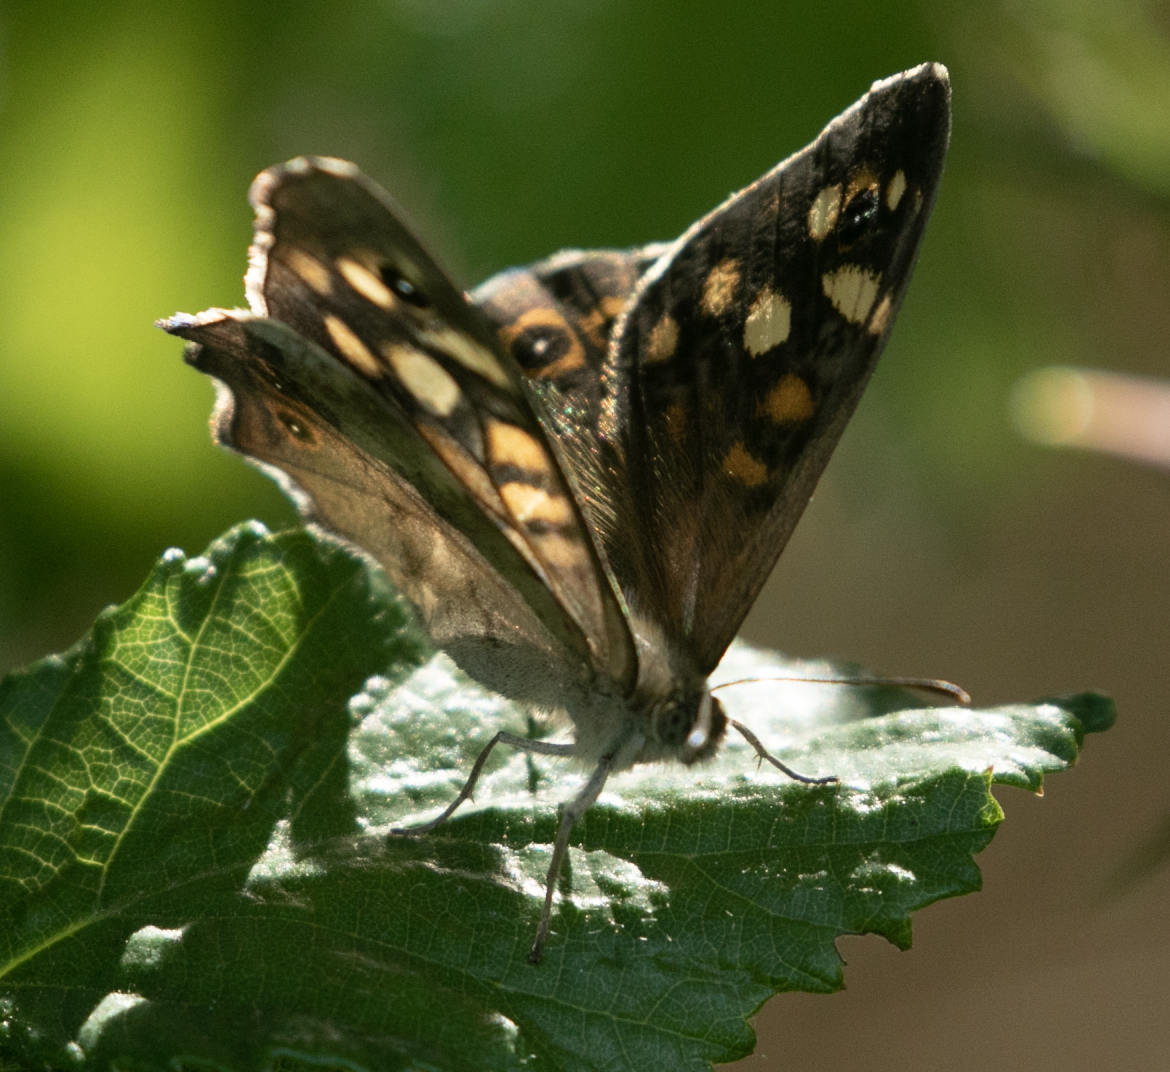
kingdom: Animalia
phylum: Arthropoda
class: Insecta
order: Lepidoptera
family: Nymphalidae
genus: Pararge
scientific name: Pararge aegeria
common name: Speckled wood
